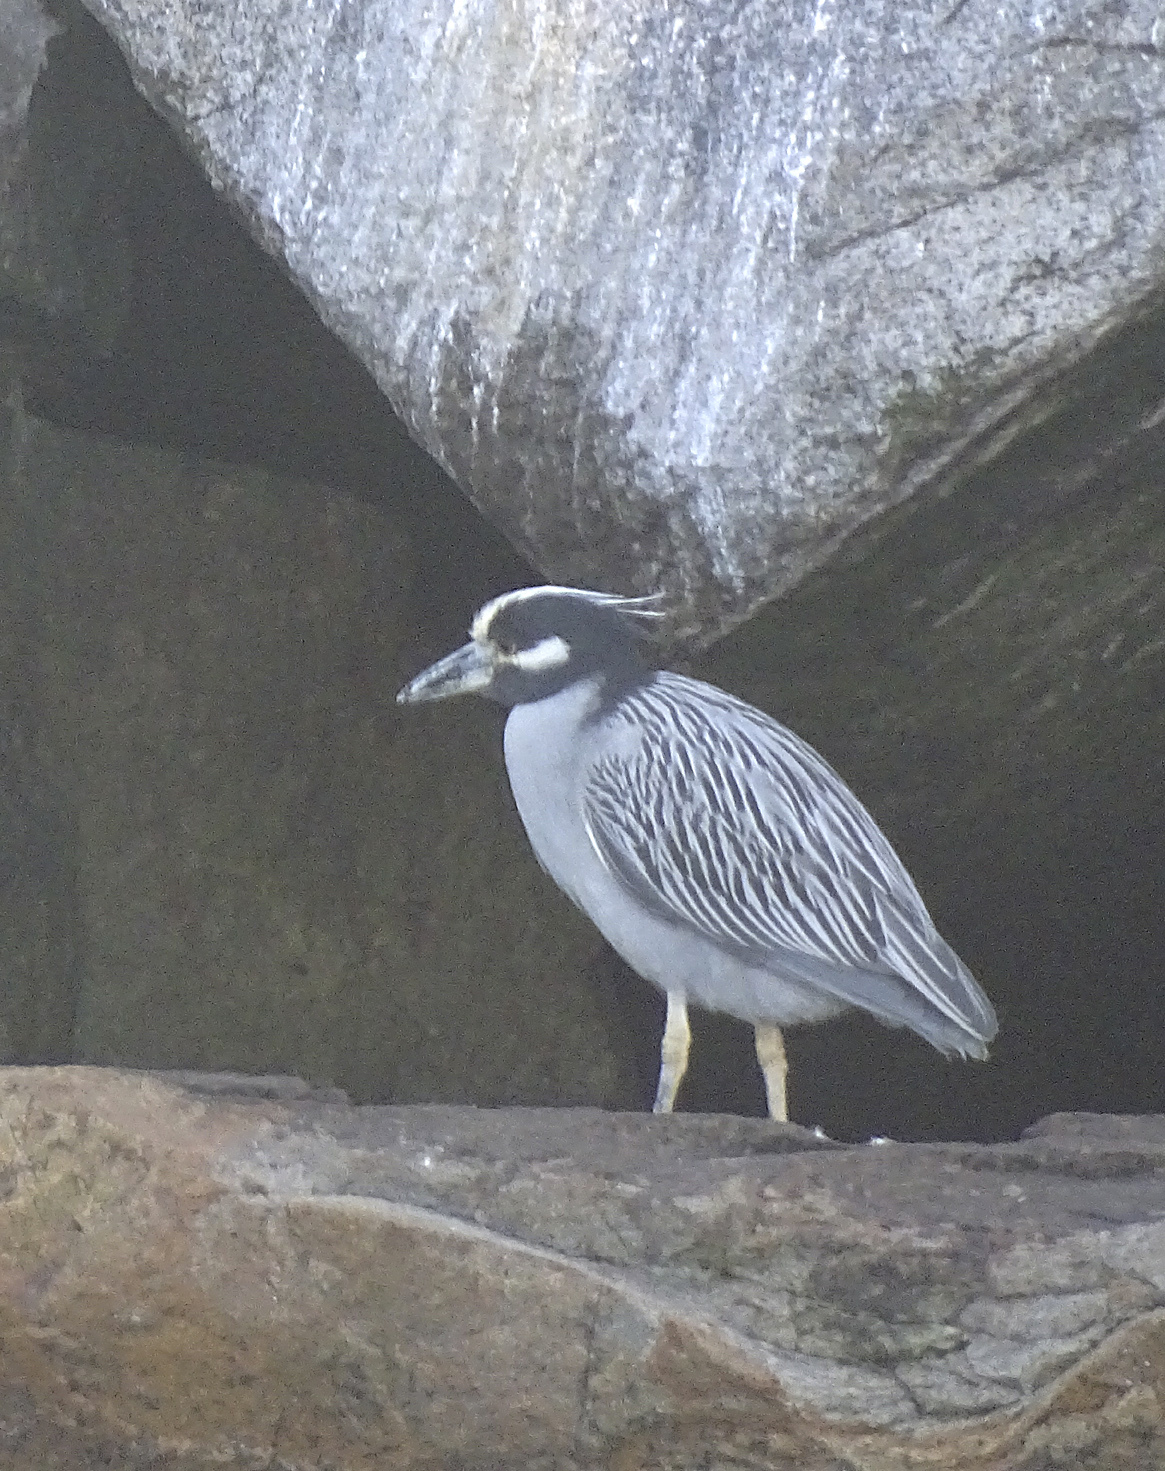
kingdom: Animalia
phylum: Chordata
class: Aves
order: Pelecaniformes
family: Ardeidae
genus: Nyctanassa
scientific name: Nyctanassa violacea
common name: Yellow-crowned night heron
